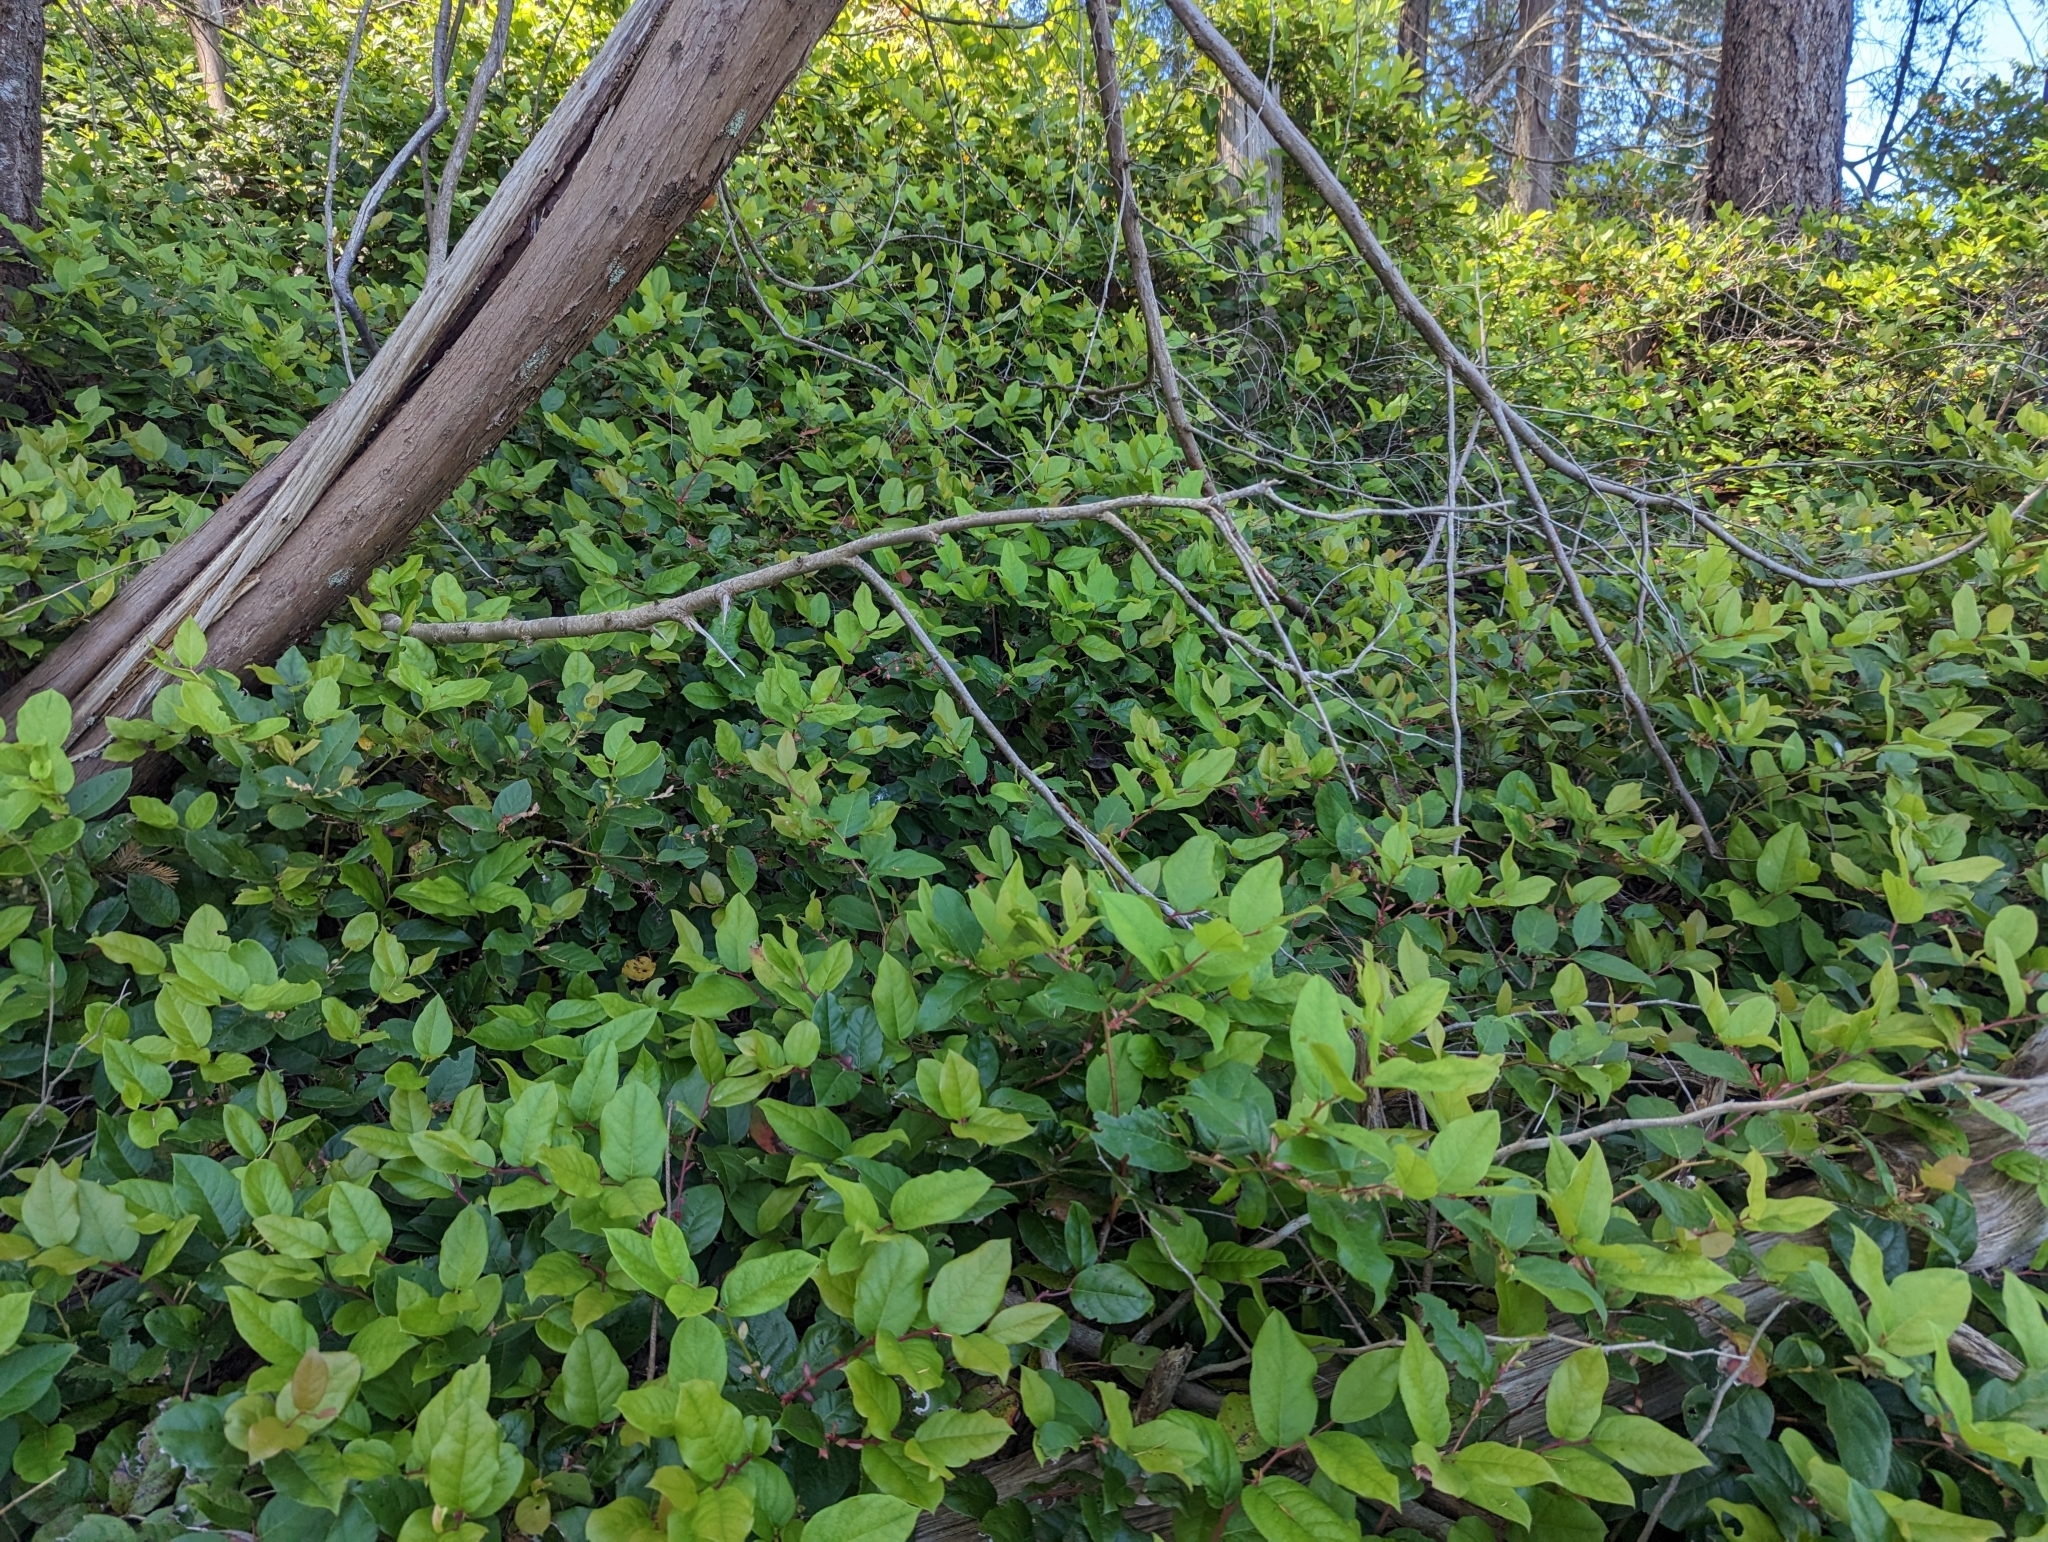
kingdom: Plantae
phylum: Tracheophyta
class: Magnoliopsida
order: Ericales
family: Ericaceae
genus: Gaultheria
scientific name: Gaultheria shallon
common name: Shallon
